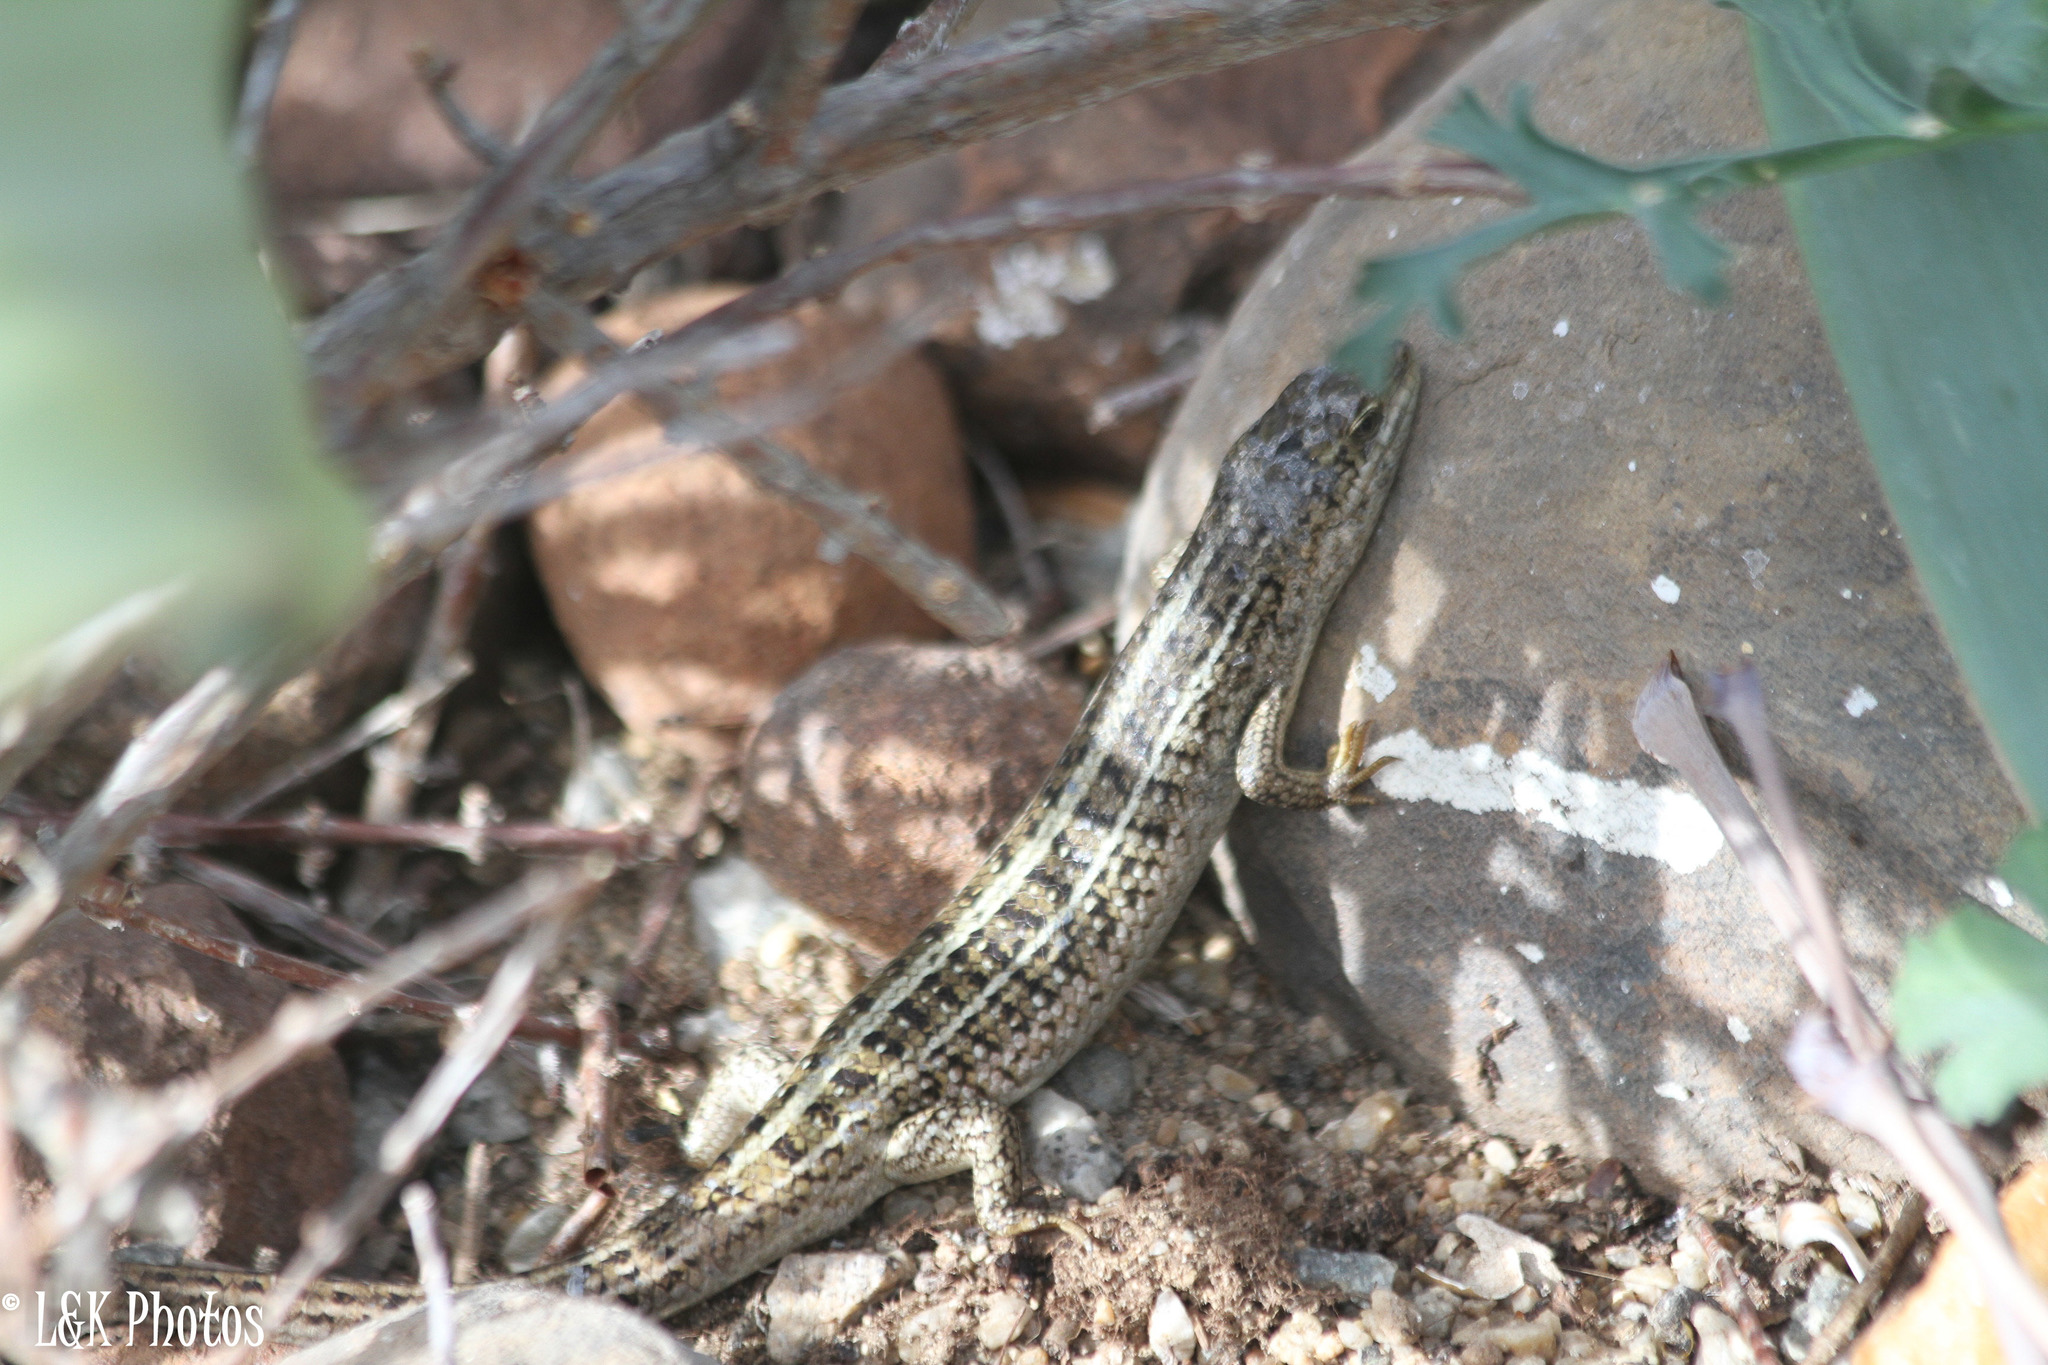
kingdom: Animalia
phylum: Chordata
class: Squamata
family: Scincidae
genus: Trachylepis
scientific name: Trachylepis capensis
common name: Cape skink
